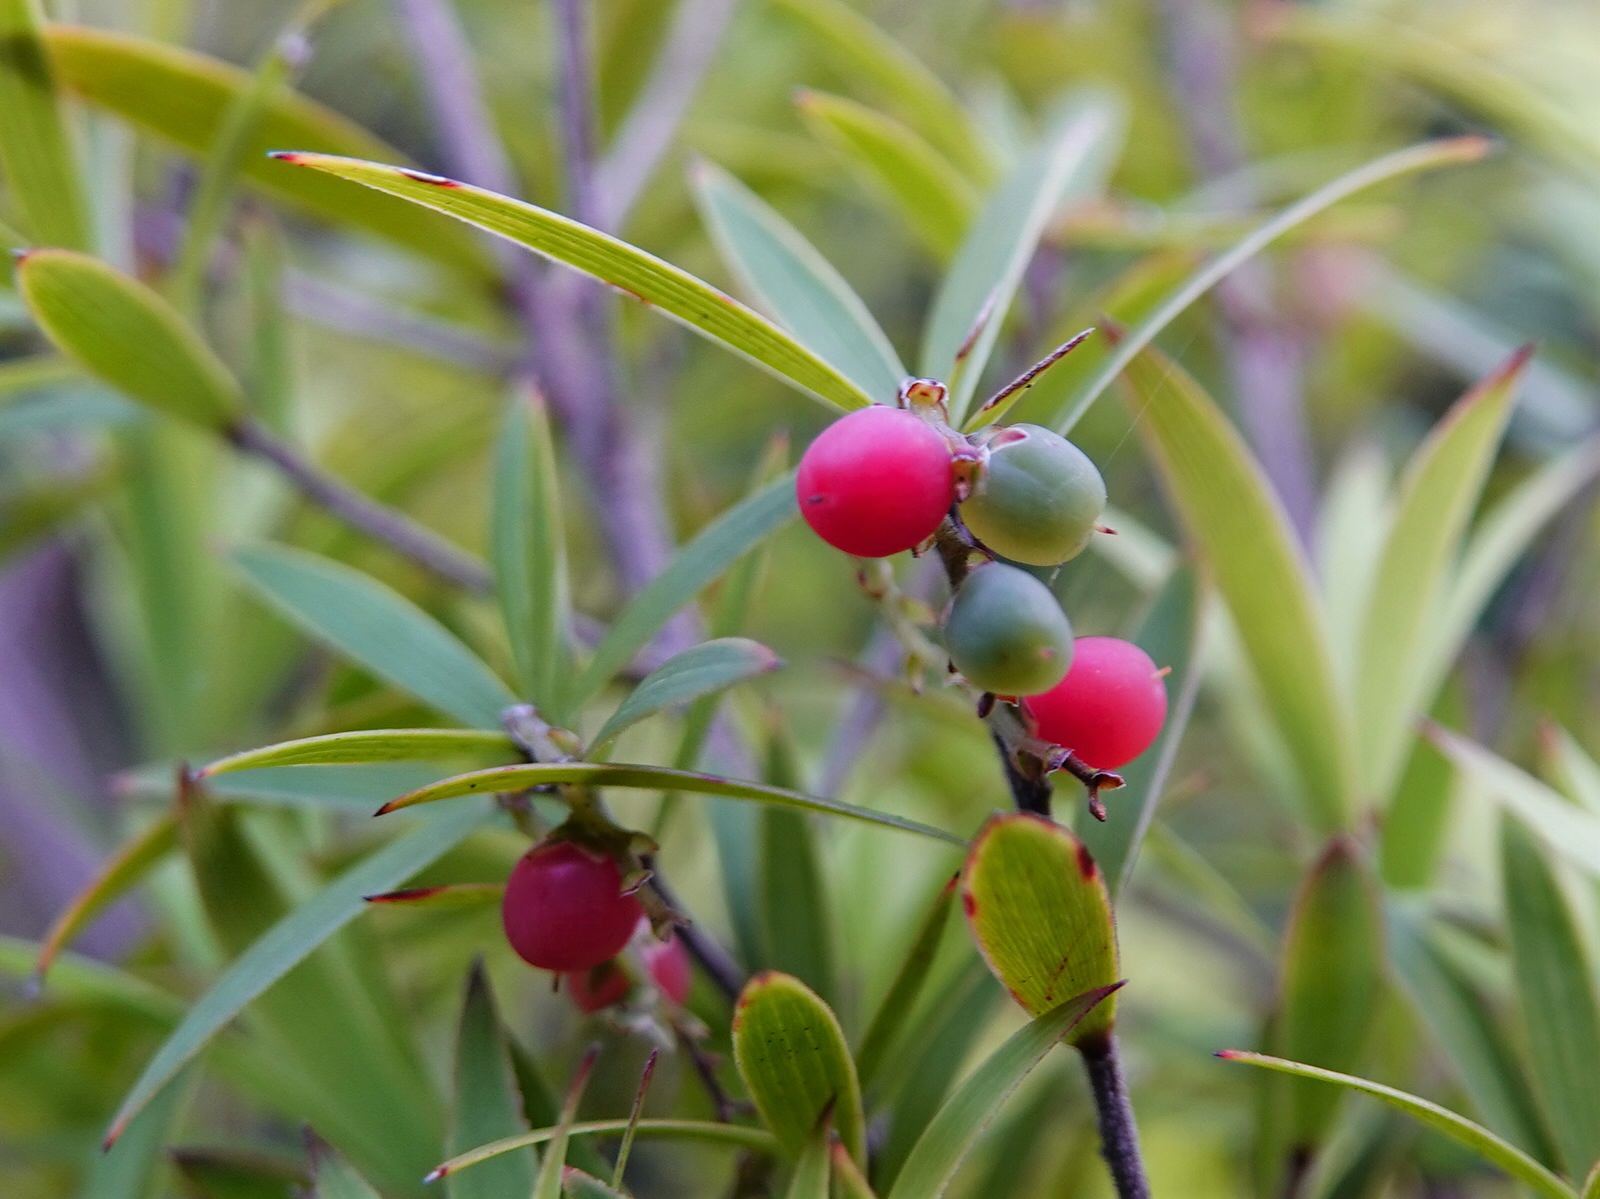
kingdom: Plantae
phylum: Tracheophyta
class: Magnoliopsida
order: Ericales
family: Ericaceae
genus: Leucopogon
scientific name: Leucopogon fasciculatus
